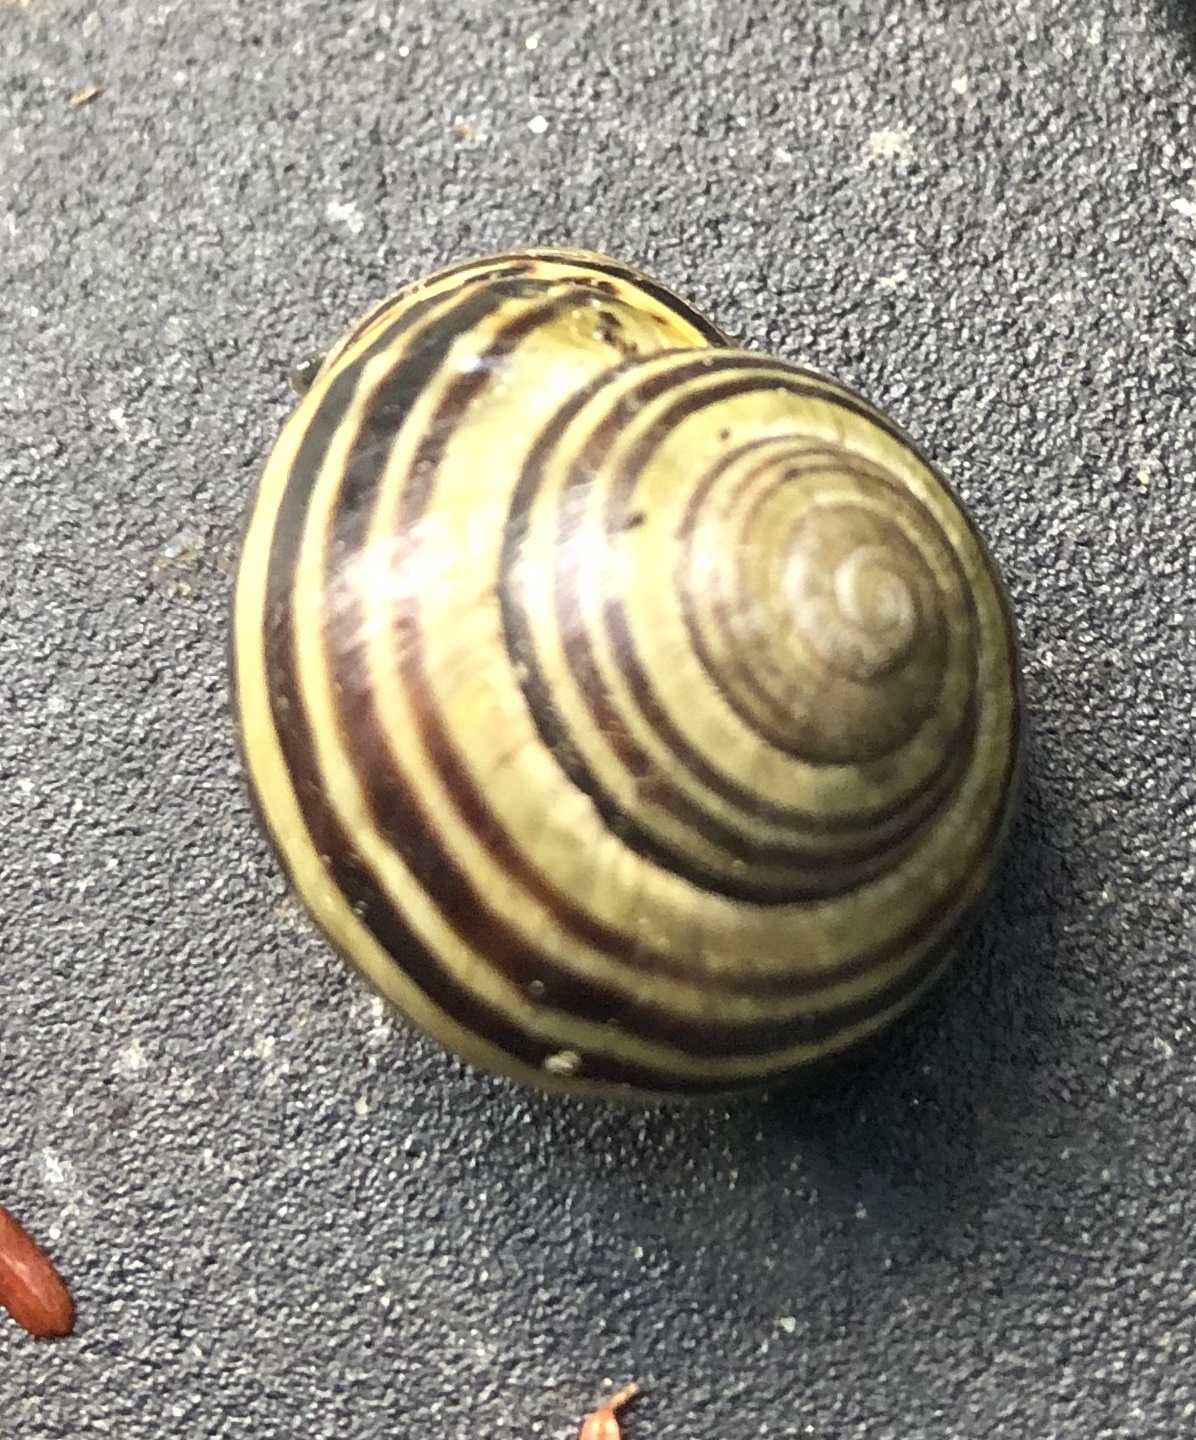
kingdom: Animalia
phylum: Mollusca
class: Gastropoda
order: Stylommatophora
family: Helicidae
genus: Cepaea
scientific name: Cepaea nemoralis
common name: Grovesnail
